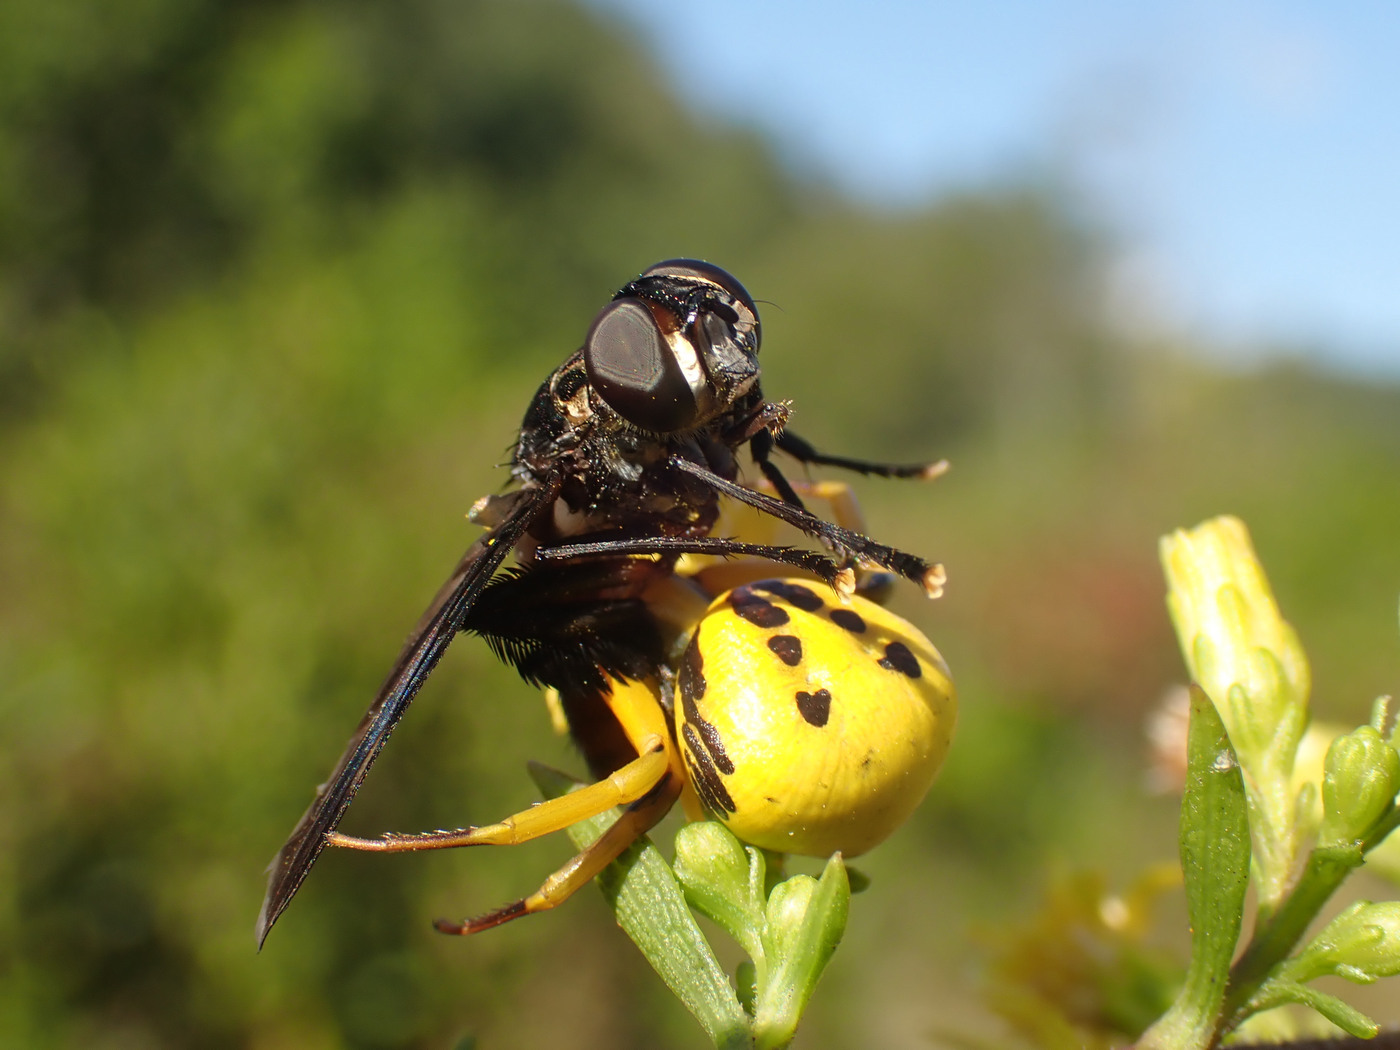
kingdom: Animalia
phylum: Arthropoda
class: Insecta
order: Diptera
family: Tachinidae
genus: Trichopoda
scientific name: Trichopoda lanipes
